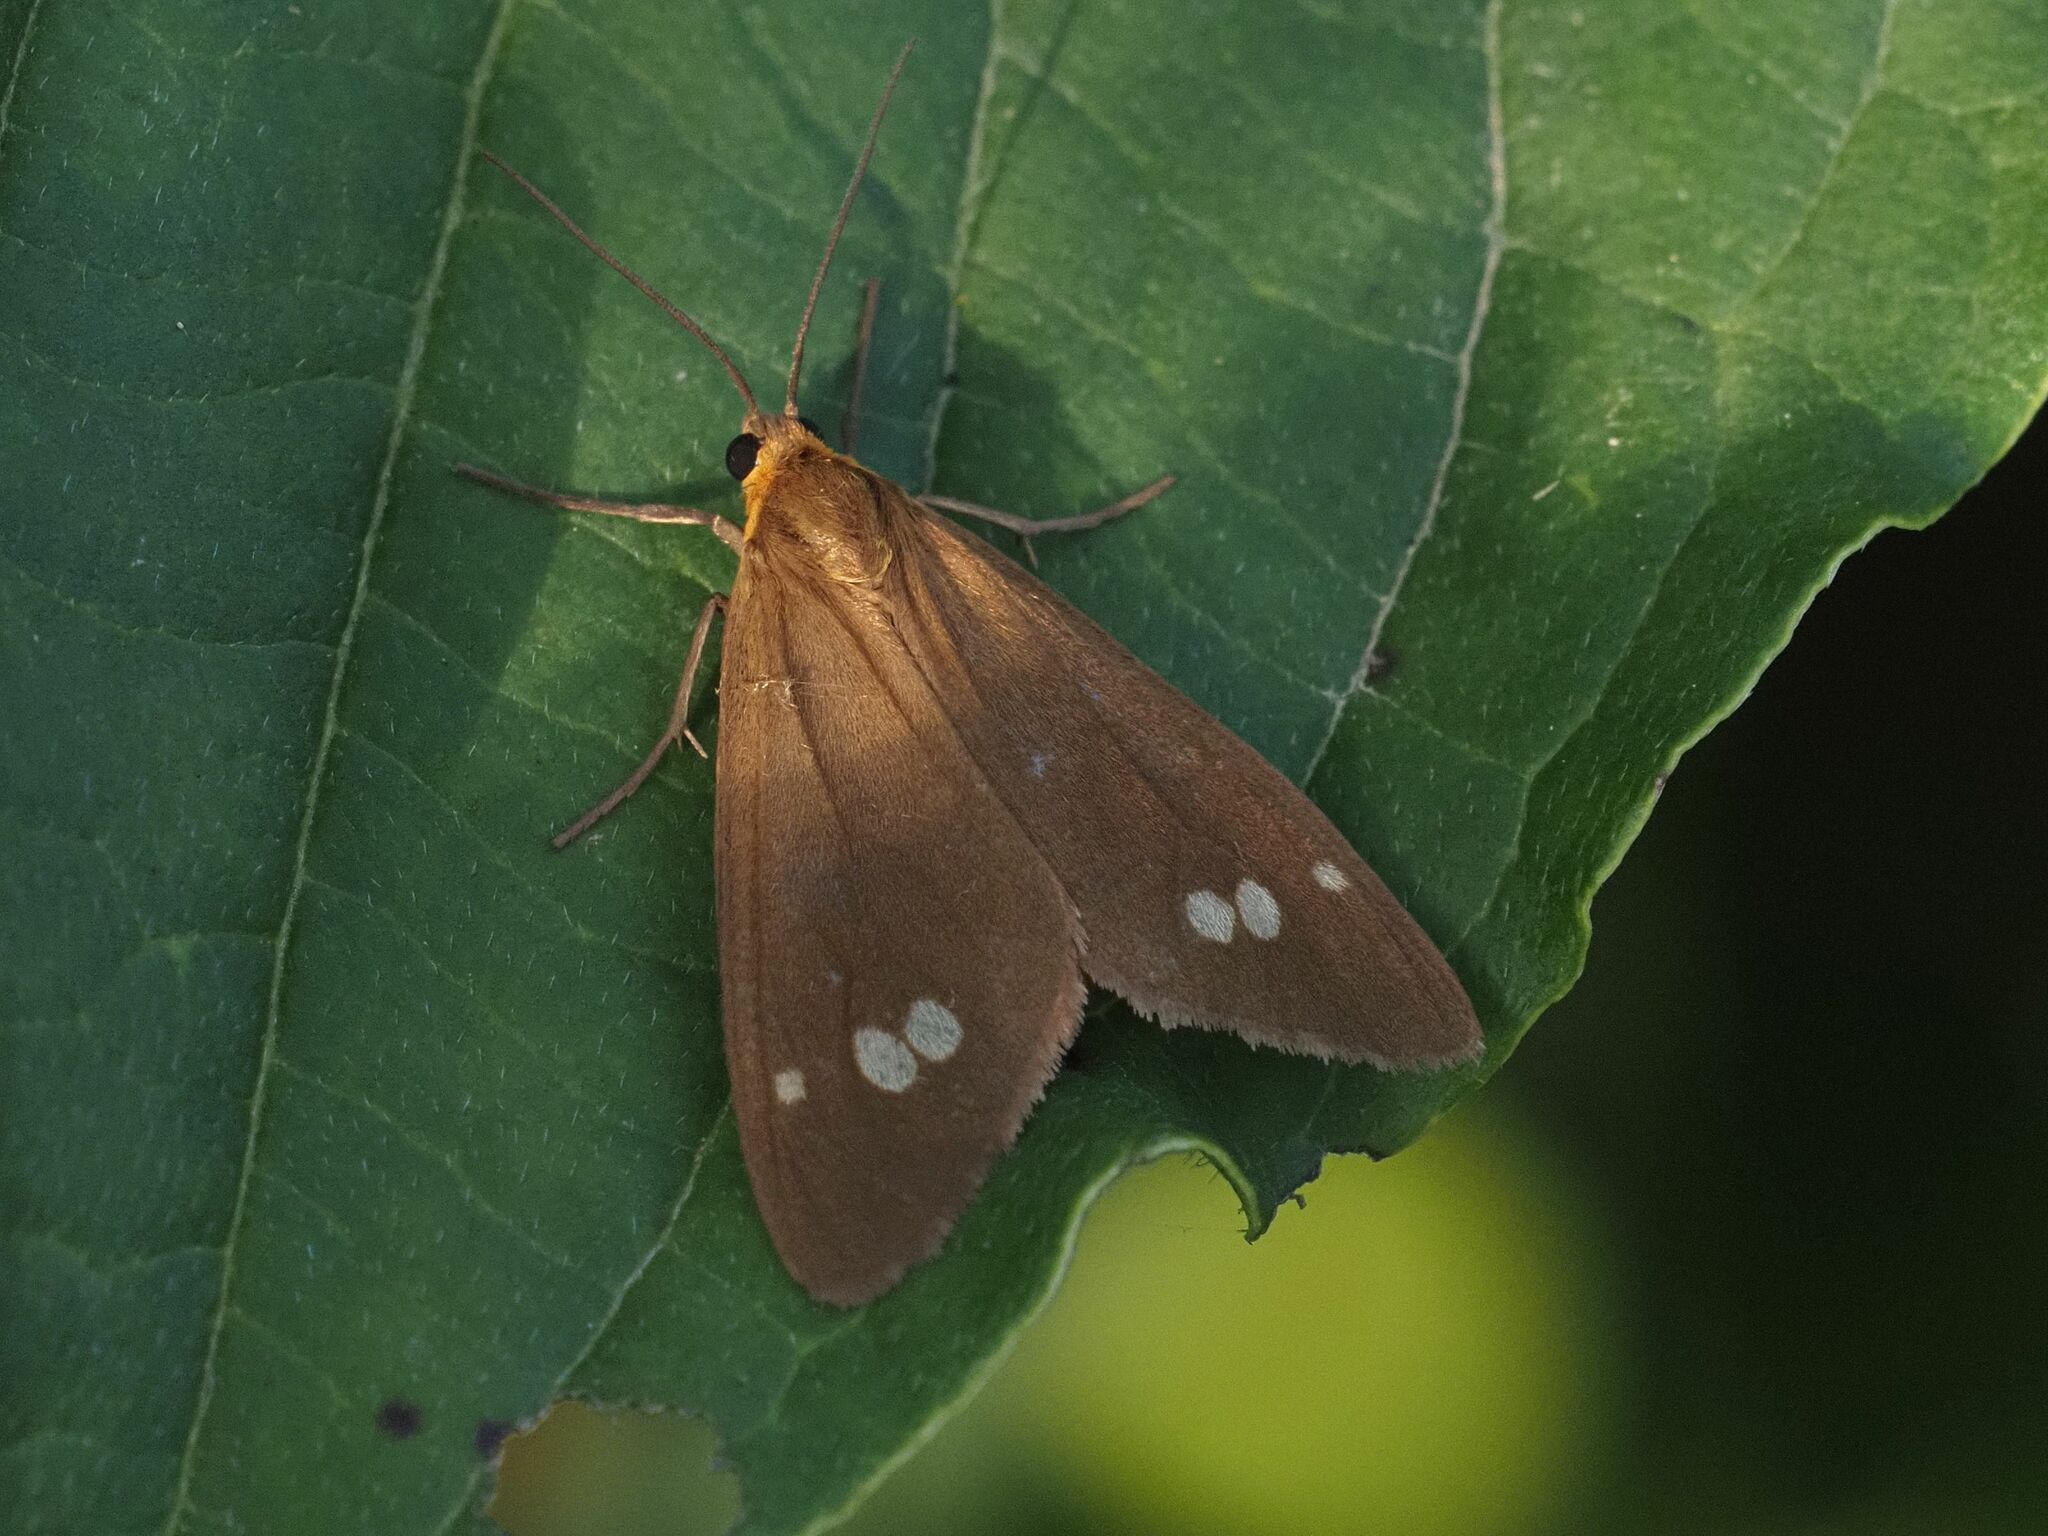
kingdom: Animalia
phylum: Arthropoda
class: Insecta
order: Lepidoptera
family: Erebidae
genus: Dysauxes
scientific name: Dysauxes ancilla
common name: The handmaid
